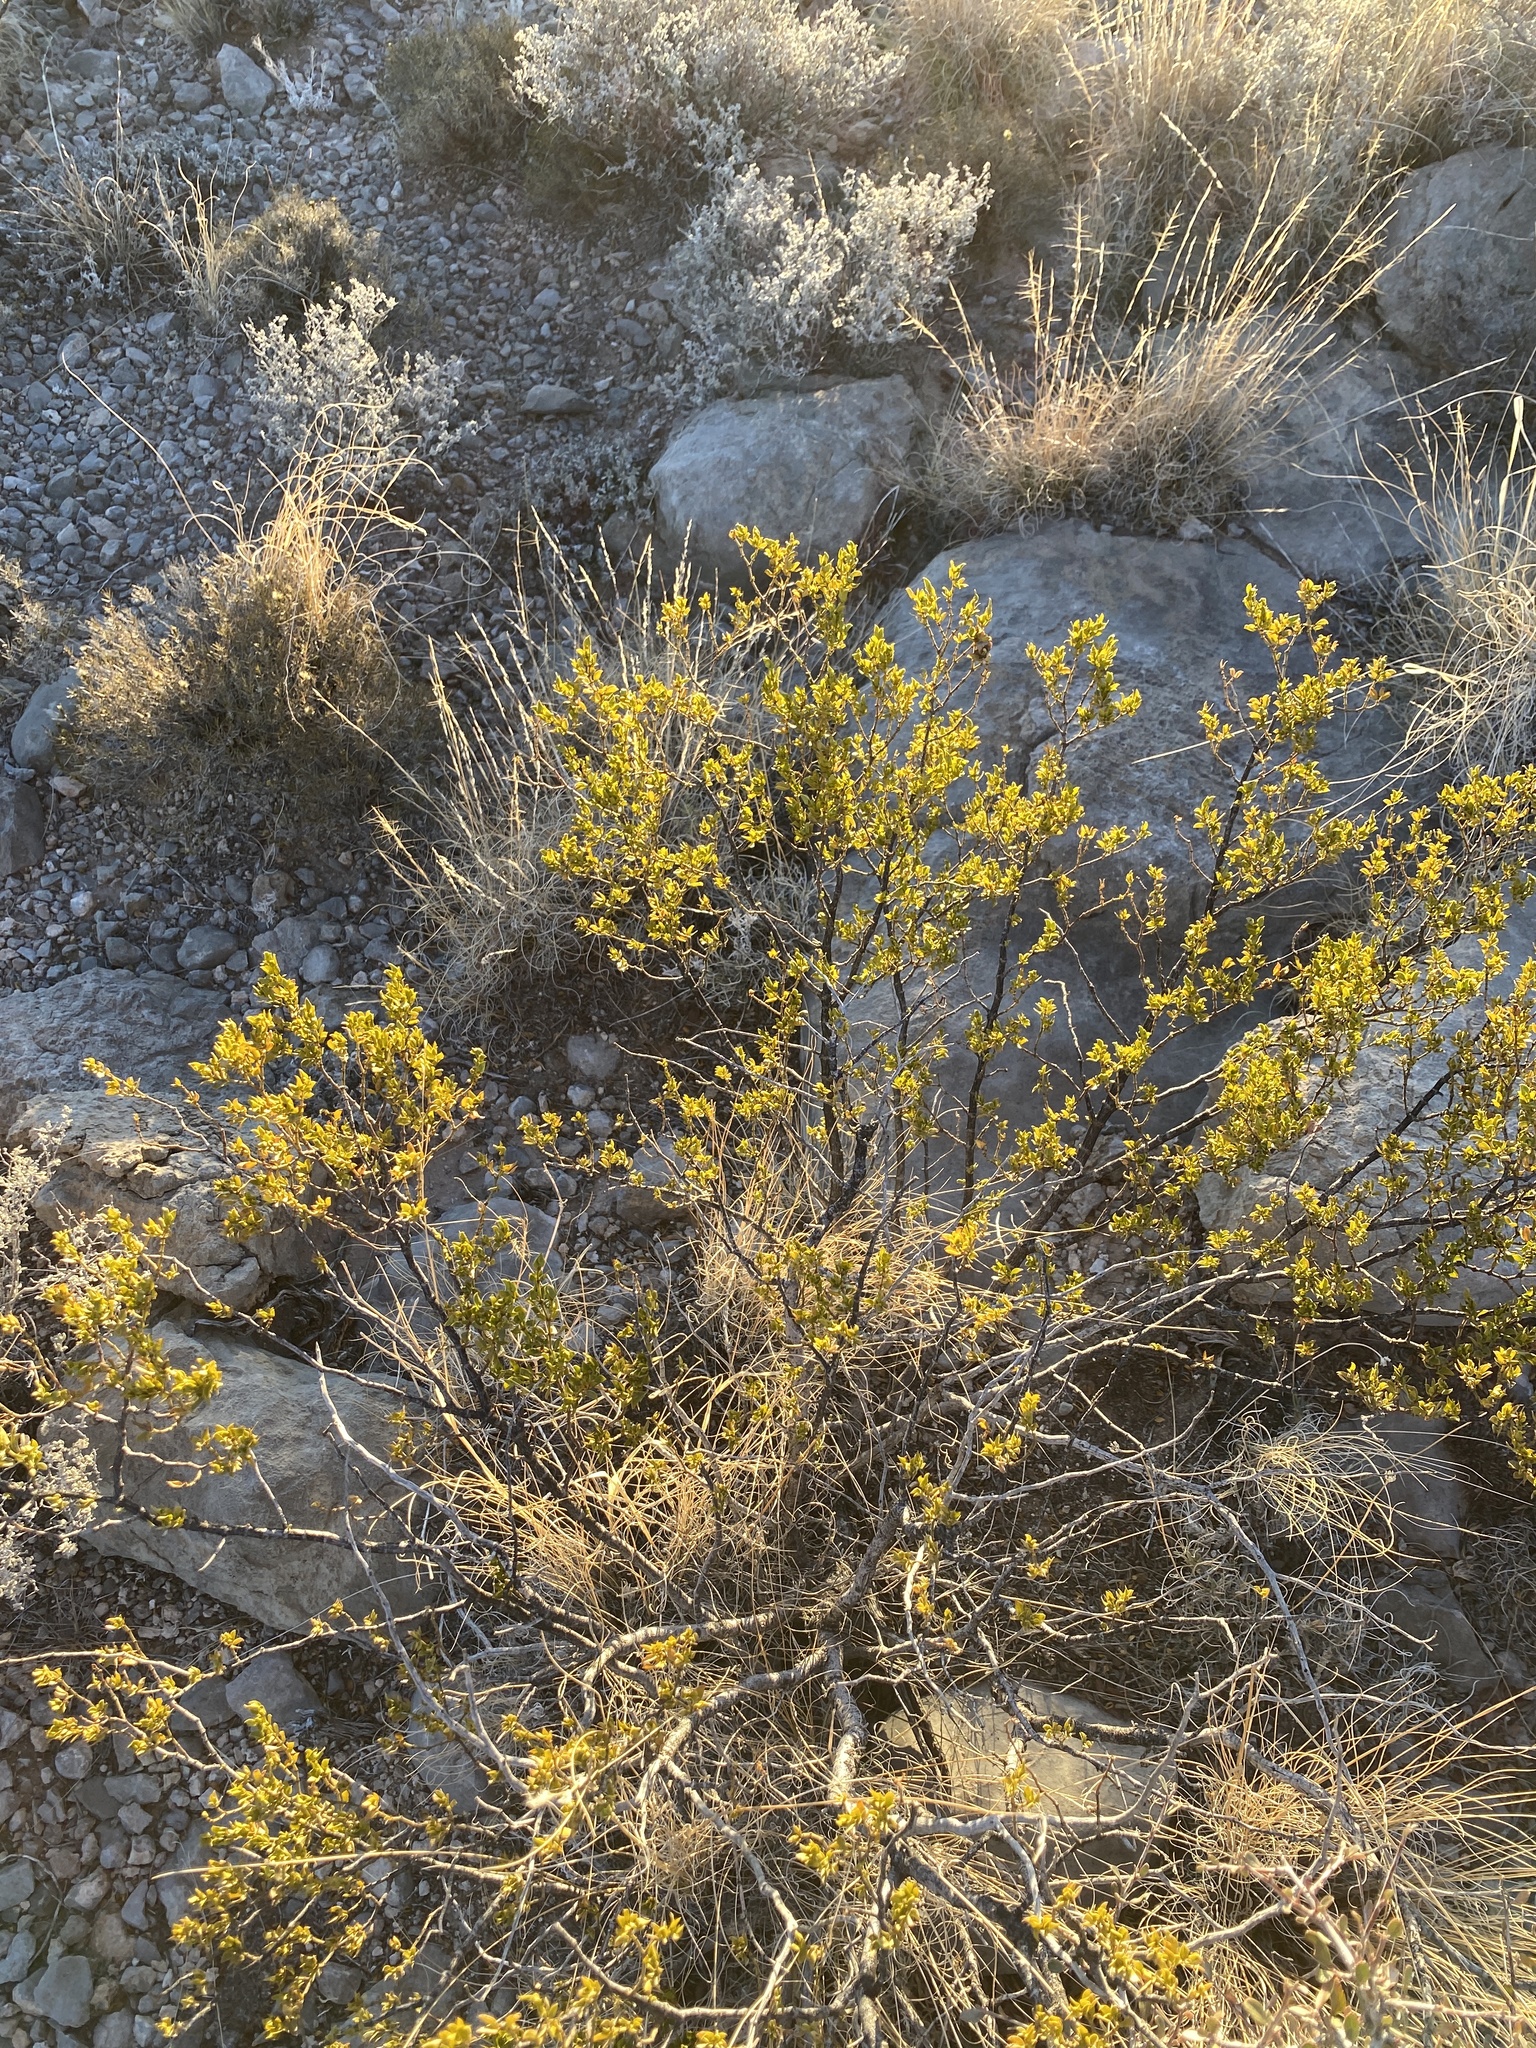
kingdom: Plantae
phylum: Tracheophyta
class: Magnoliopsida
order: Zygophyllales
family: Zygophyllaceae
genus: Larrea
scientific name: Larrea tridentata
